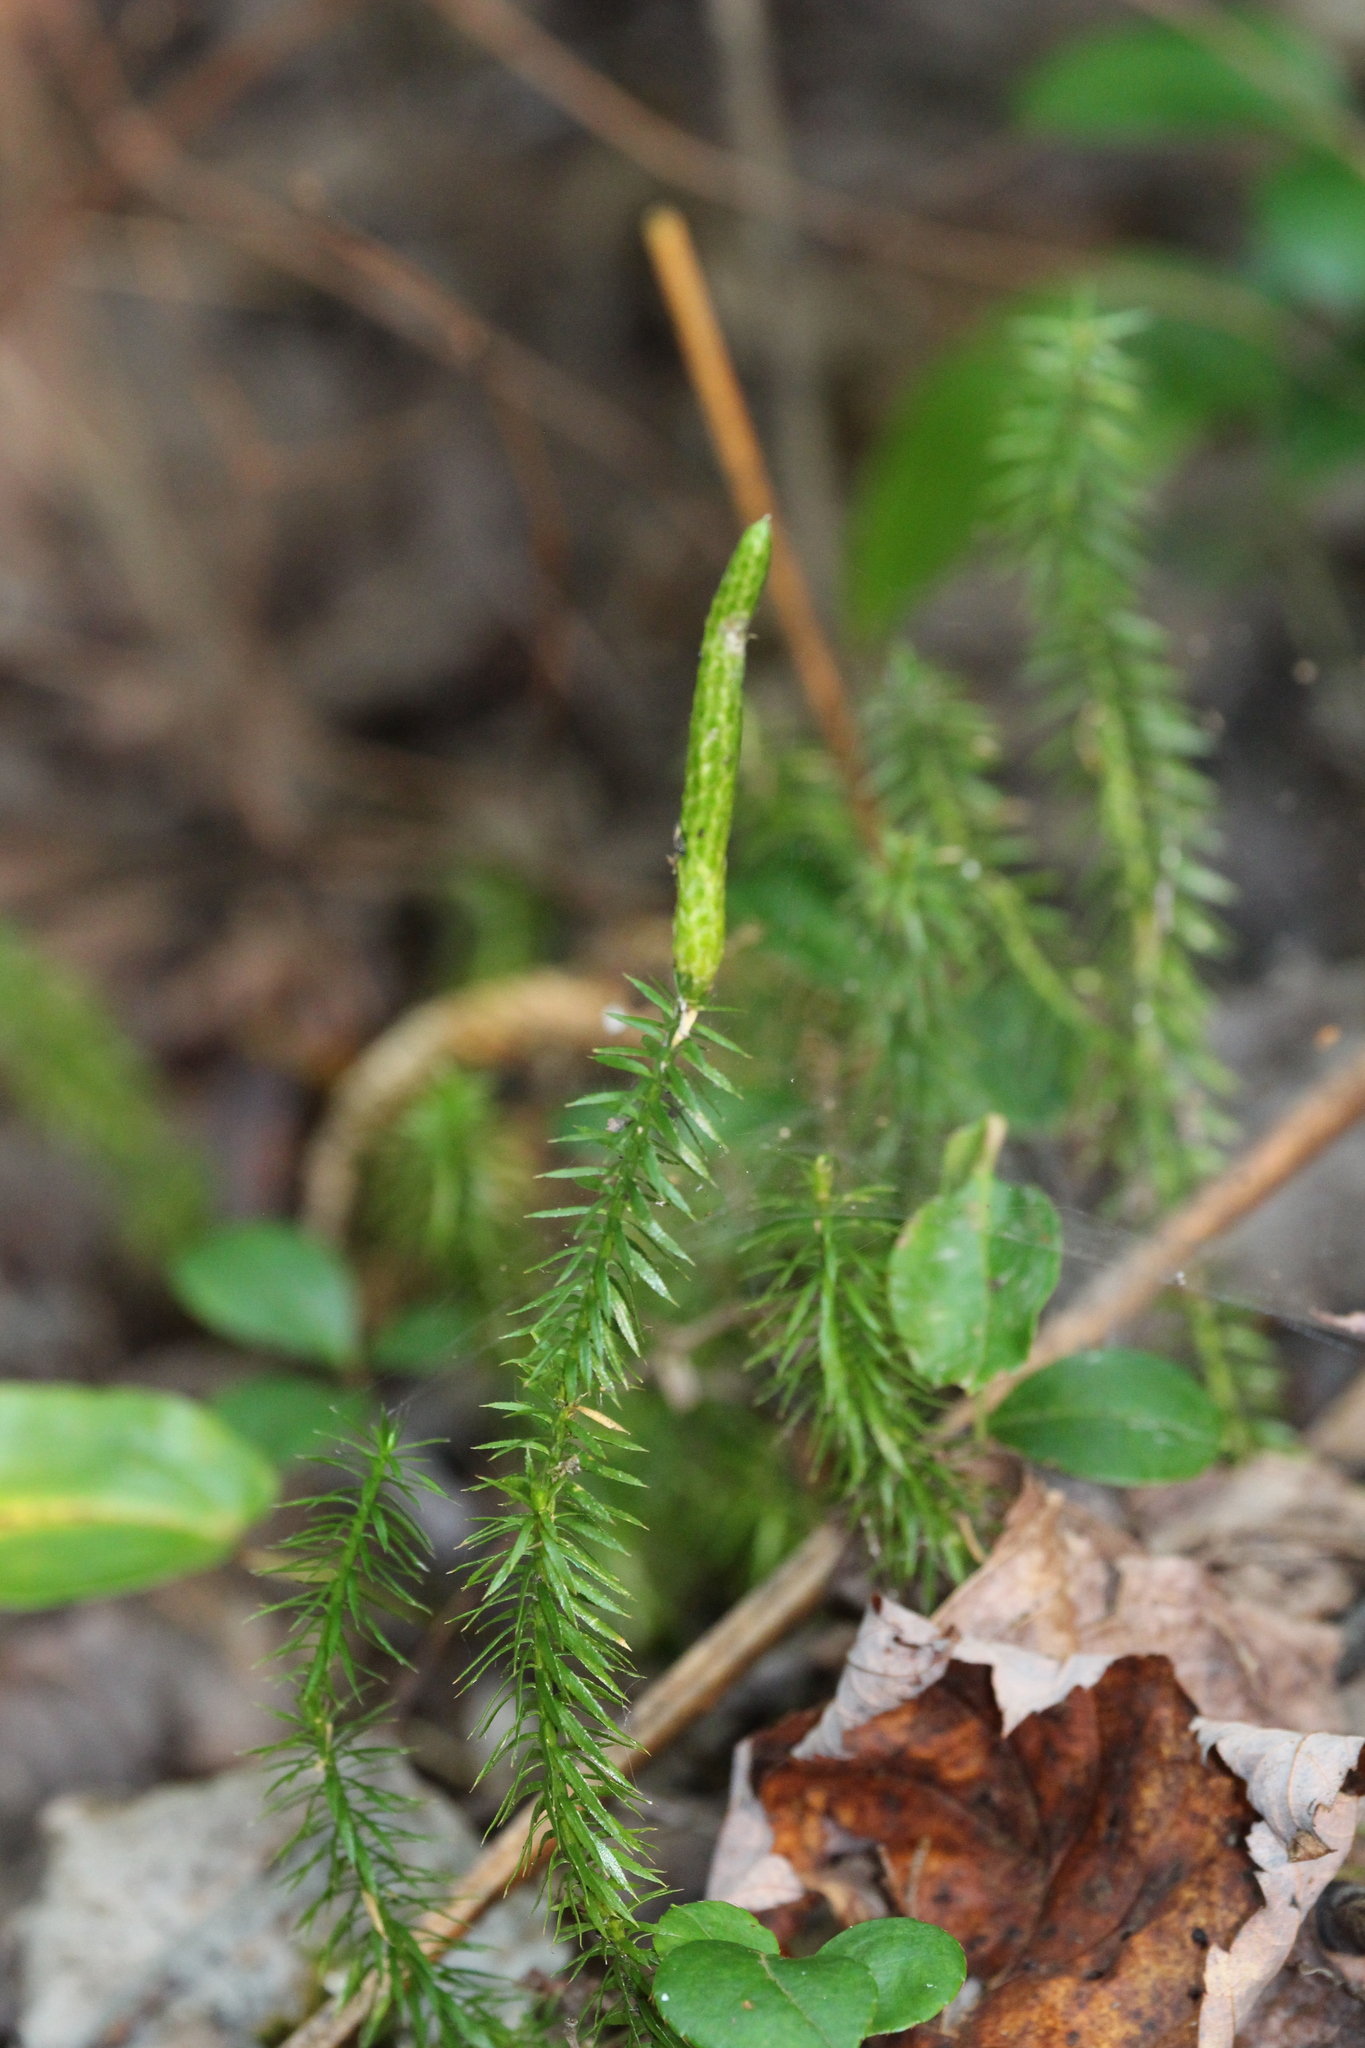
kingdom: Plantae
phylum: Tracheophyta
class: Lycopodiopsida
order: Lycopodiales
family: Lycopodiaceae
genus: Spinulum
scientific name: Spinulum annotinum
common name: Interrupted club-moss
